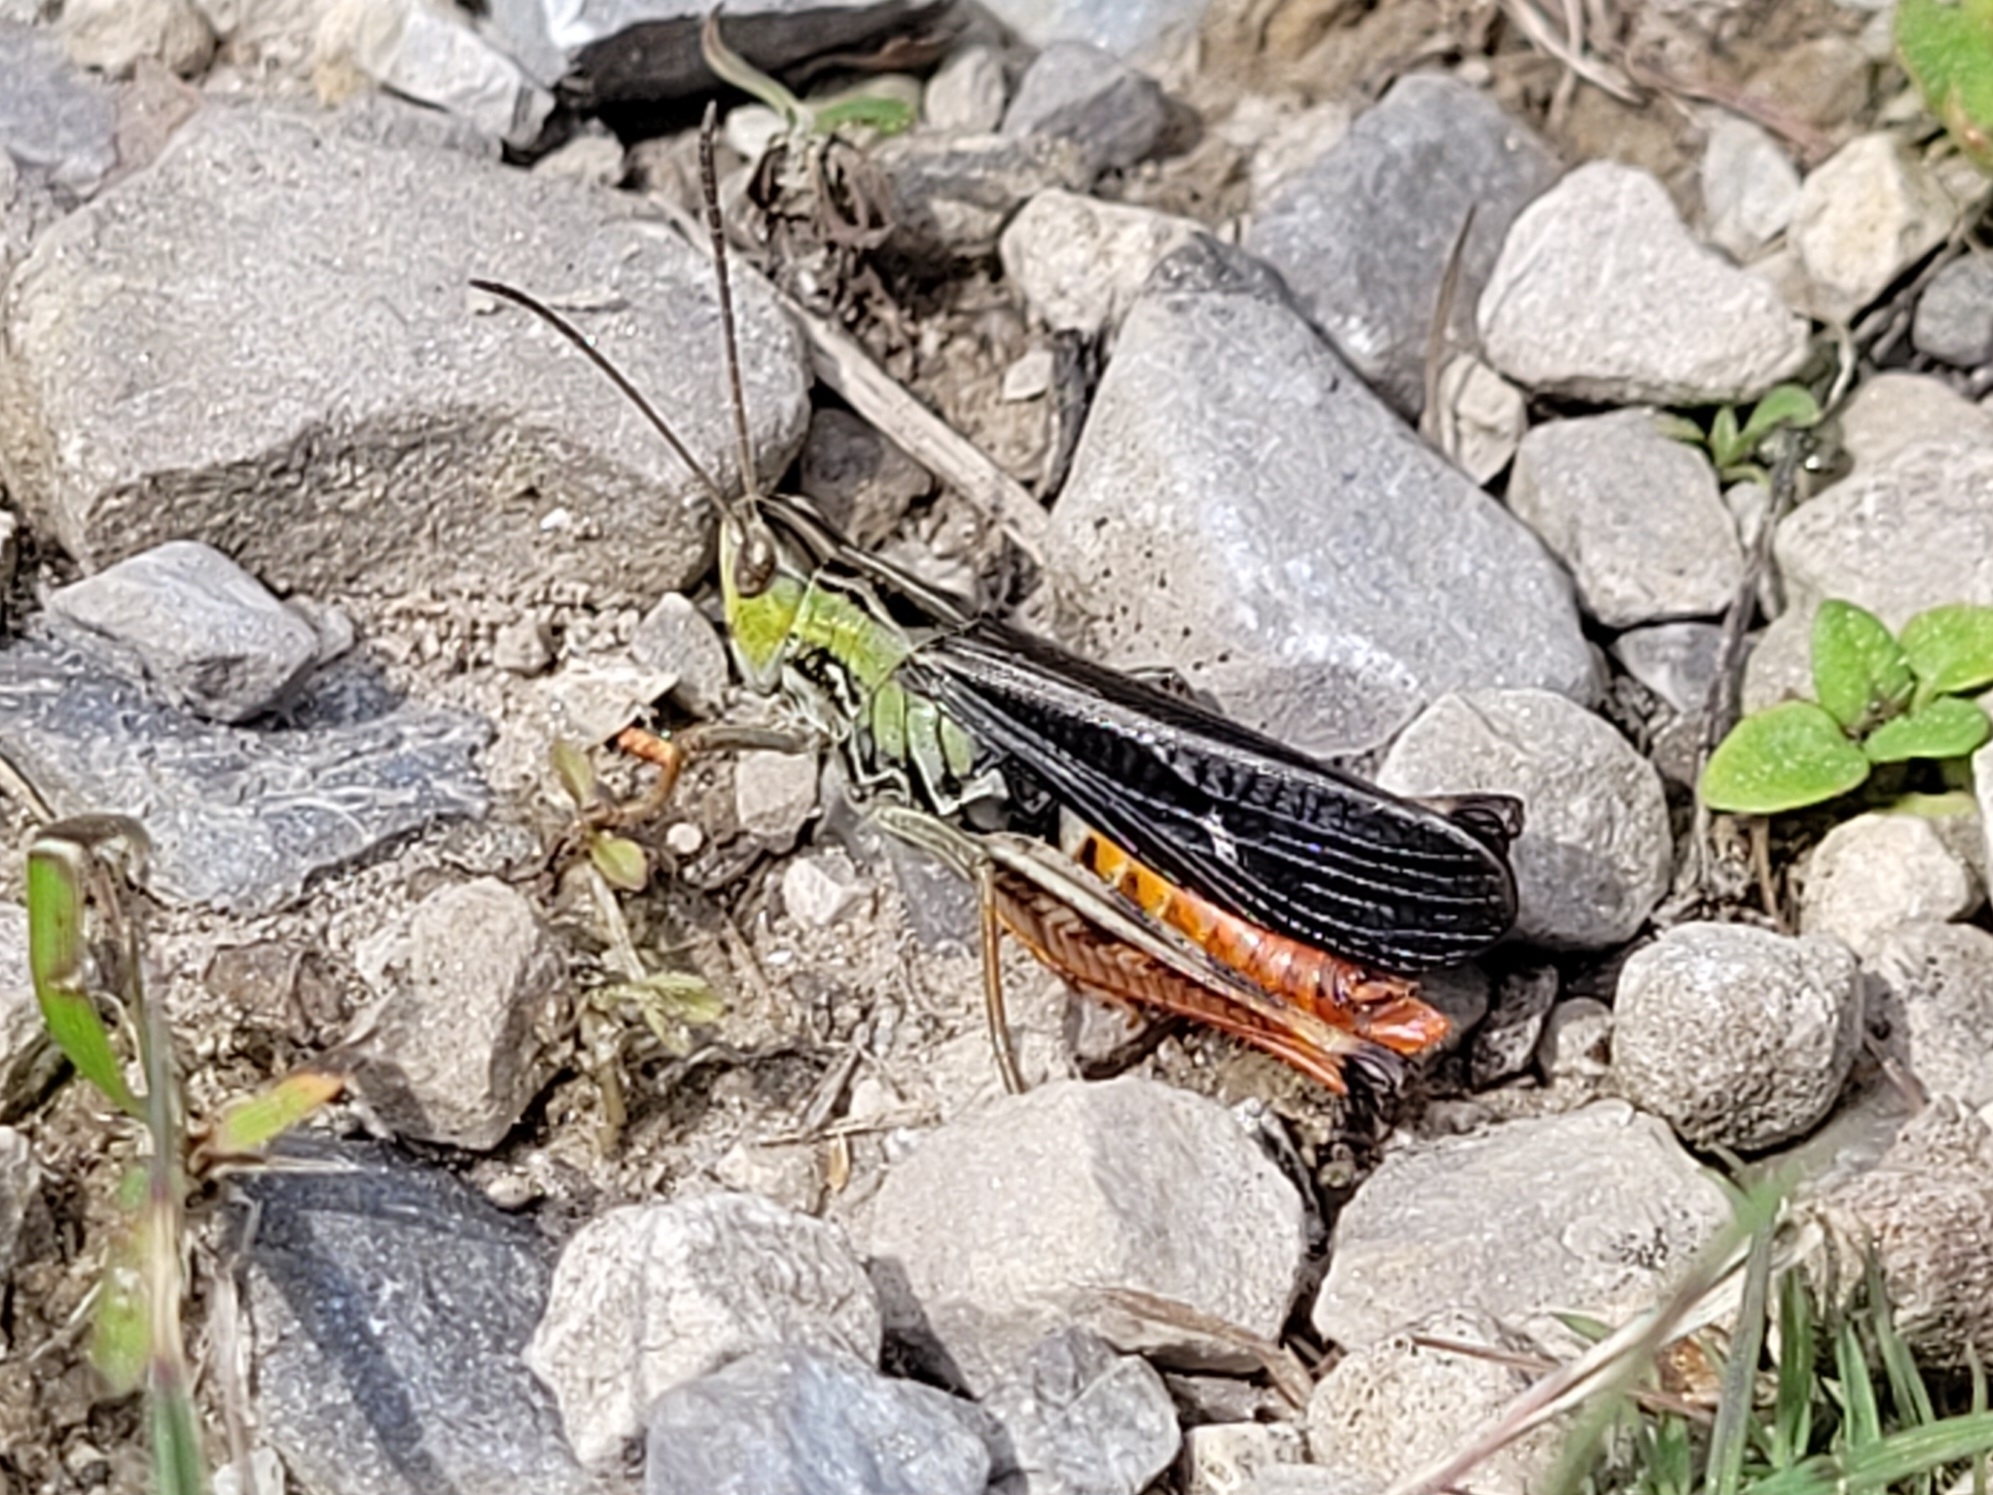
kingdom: Animalia
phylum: Arthropoda
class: Insecta
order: Orthoptera
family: Acrididae
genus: Stenobothrus
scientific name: Stenobothrus rubicundulus
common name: Wing-buzzing grasshopper
